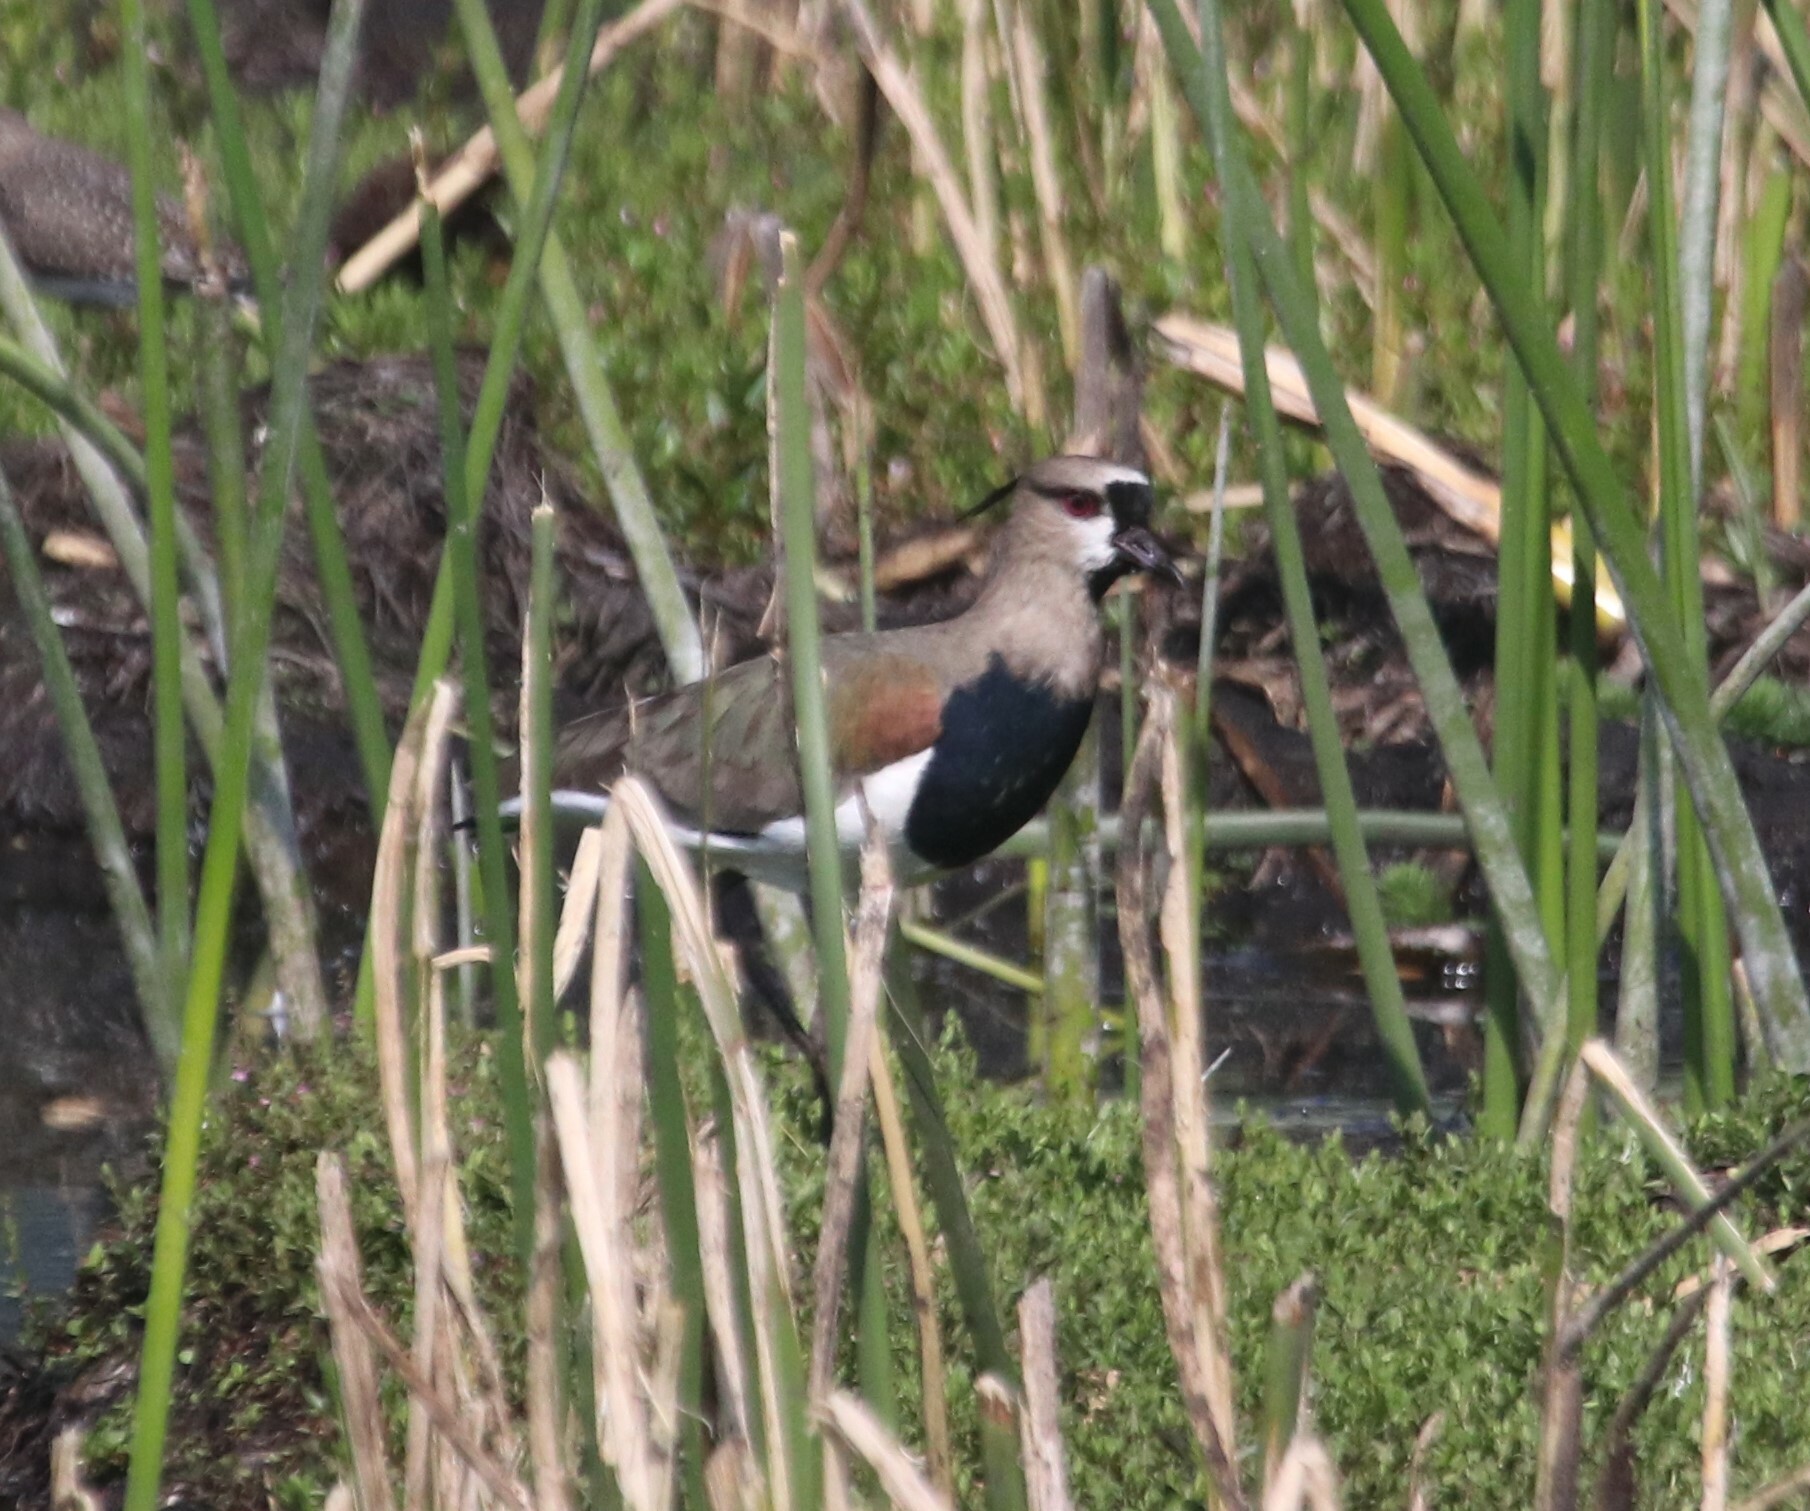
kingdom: Animalia
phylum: Chordata
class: Aves
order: Charadriiformes
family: Charadriidae
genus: Vanellus
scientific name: Vanellus chilensis
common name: Southern lapwing
